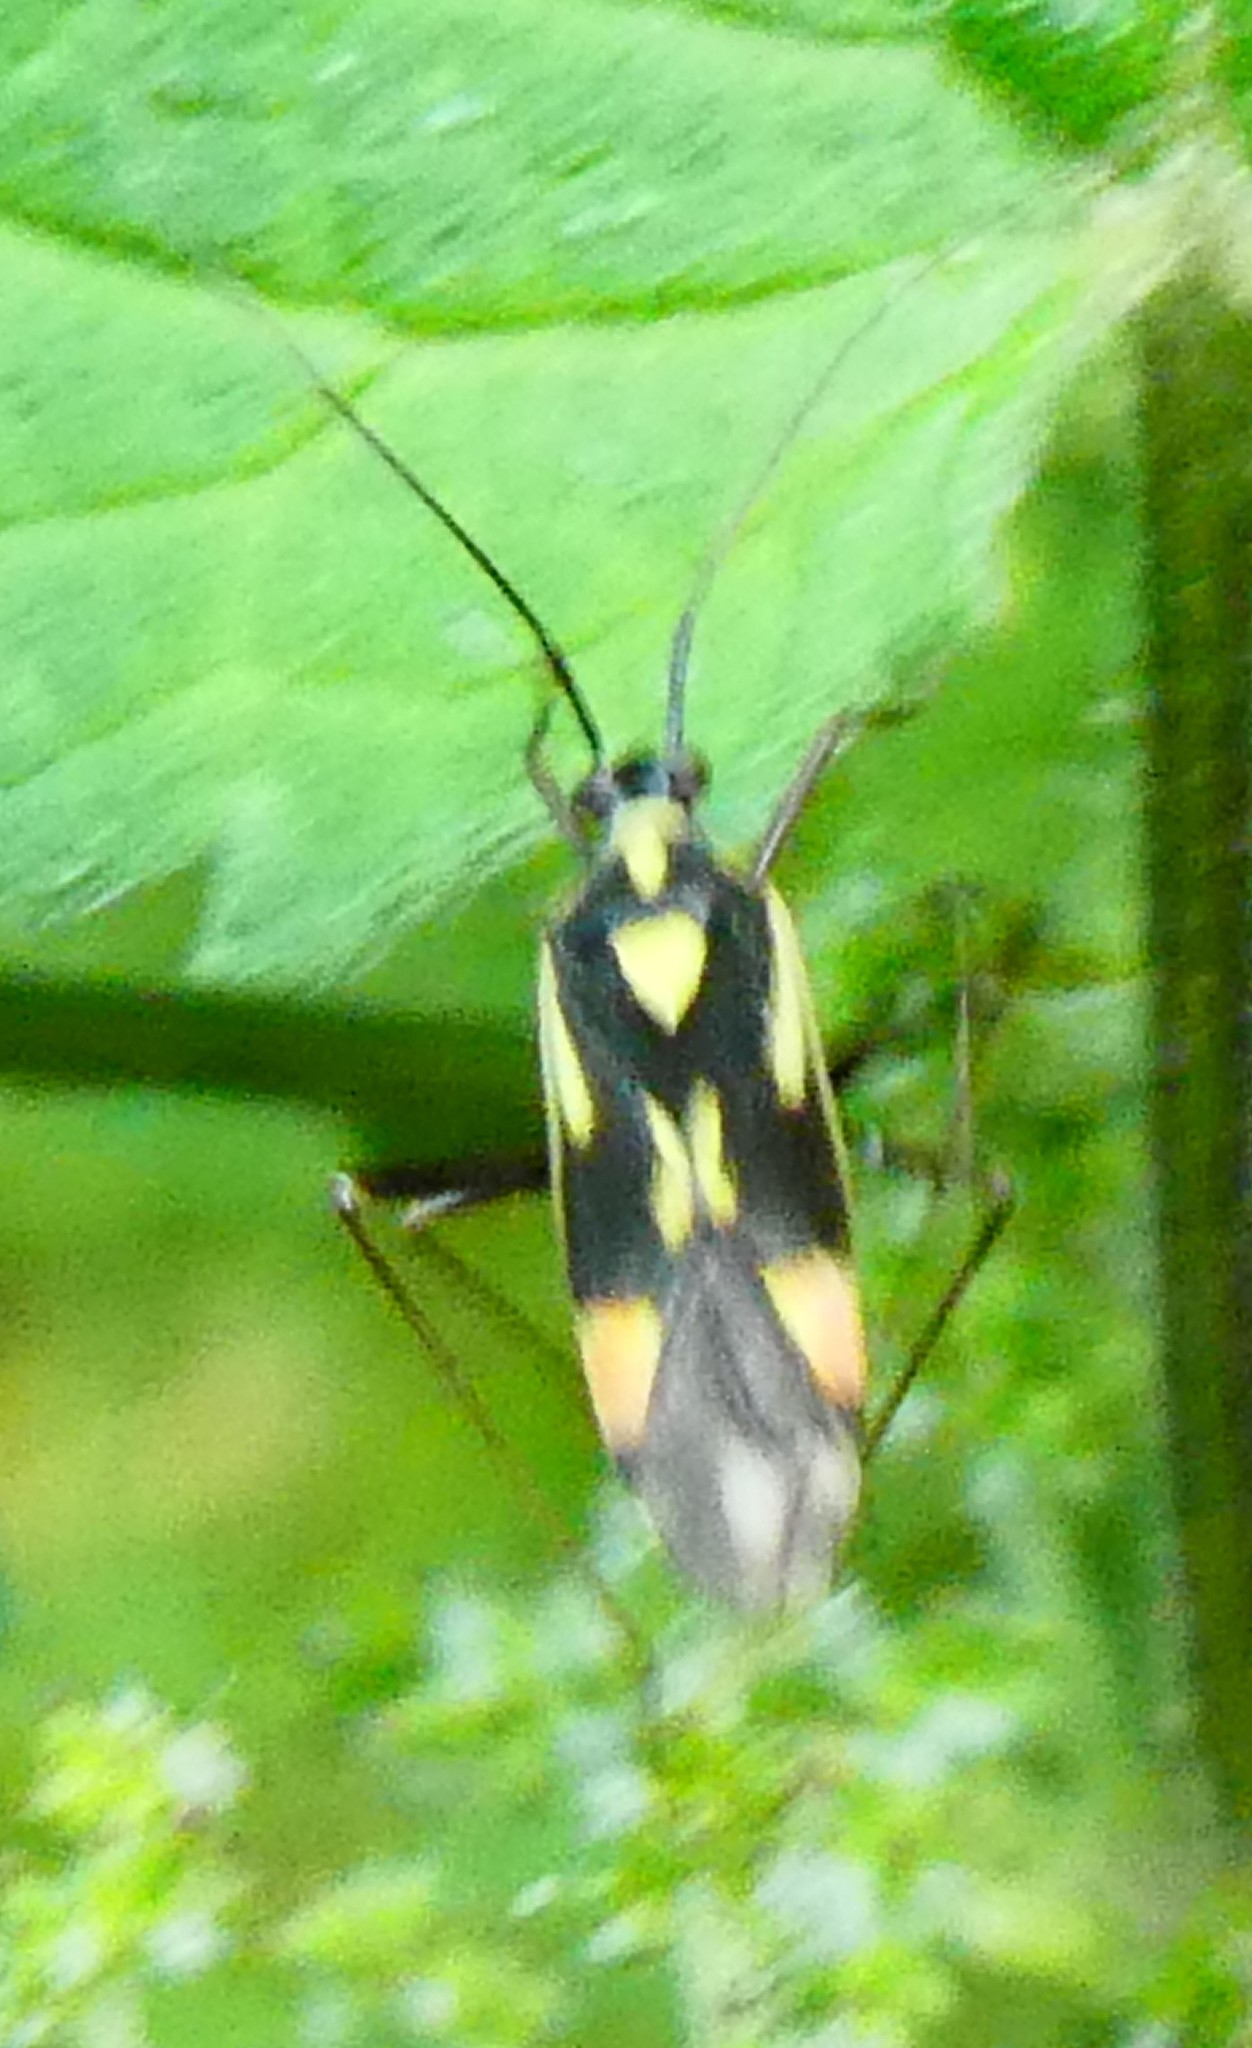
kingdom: Animalia
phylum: Arthropoda
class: Insecta
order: Hemiptera
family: Miridae
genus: Grypocoris
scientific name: Grypocoris stysi
